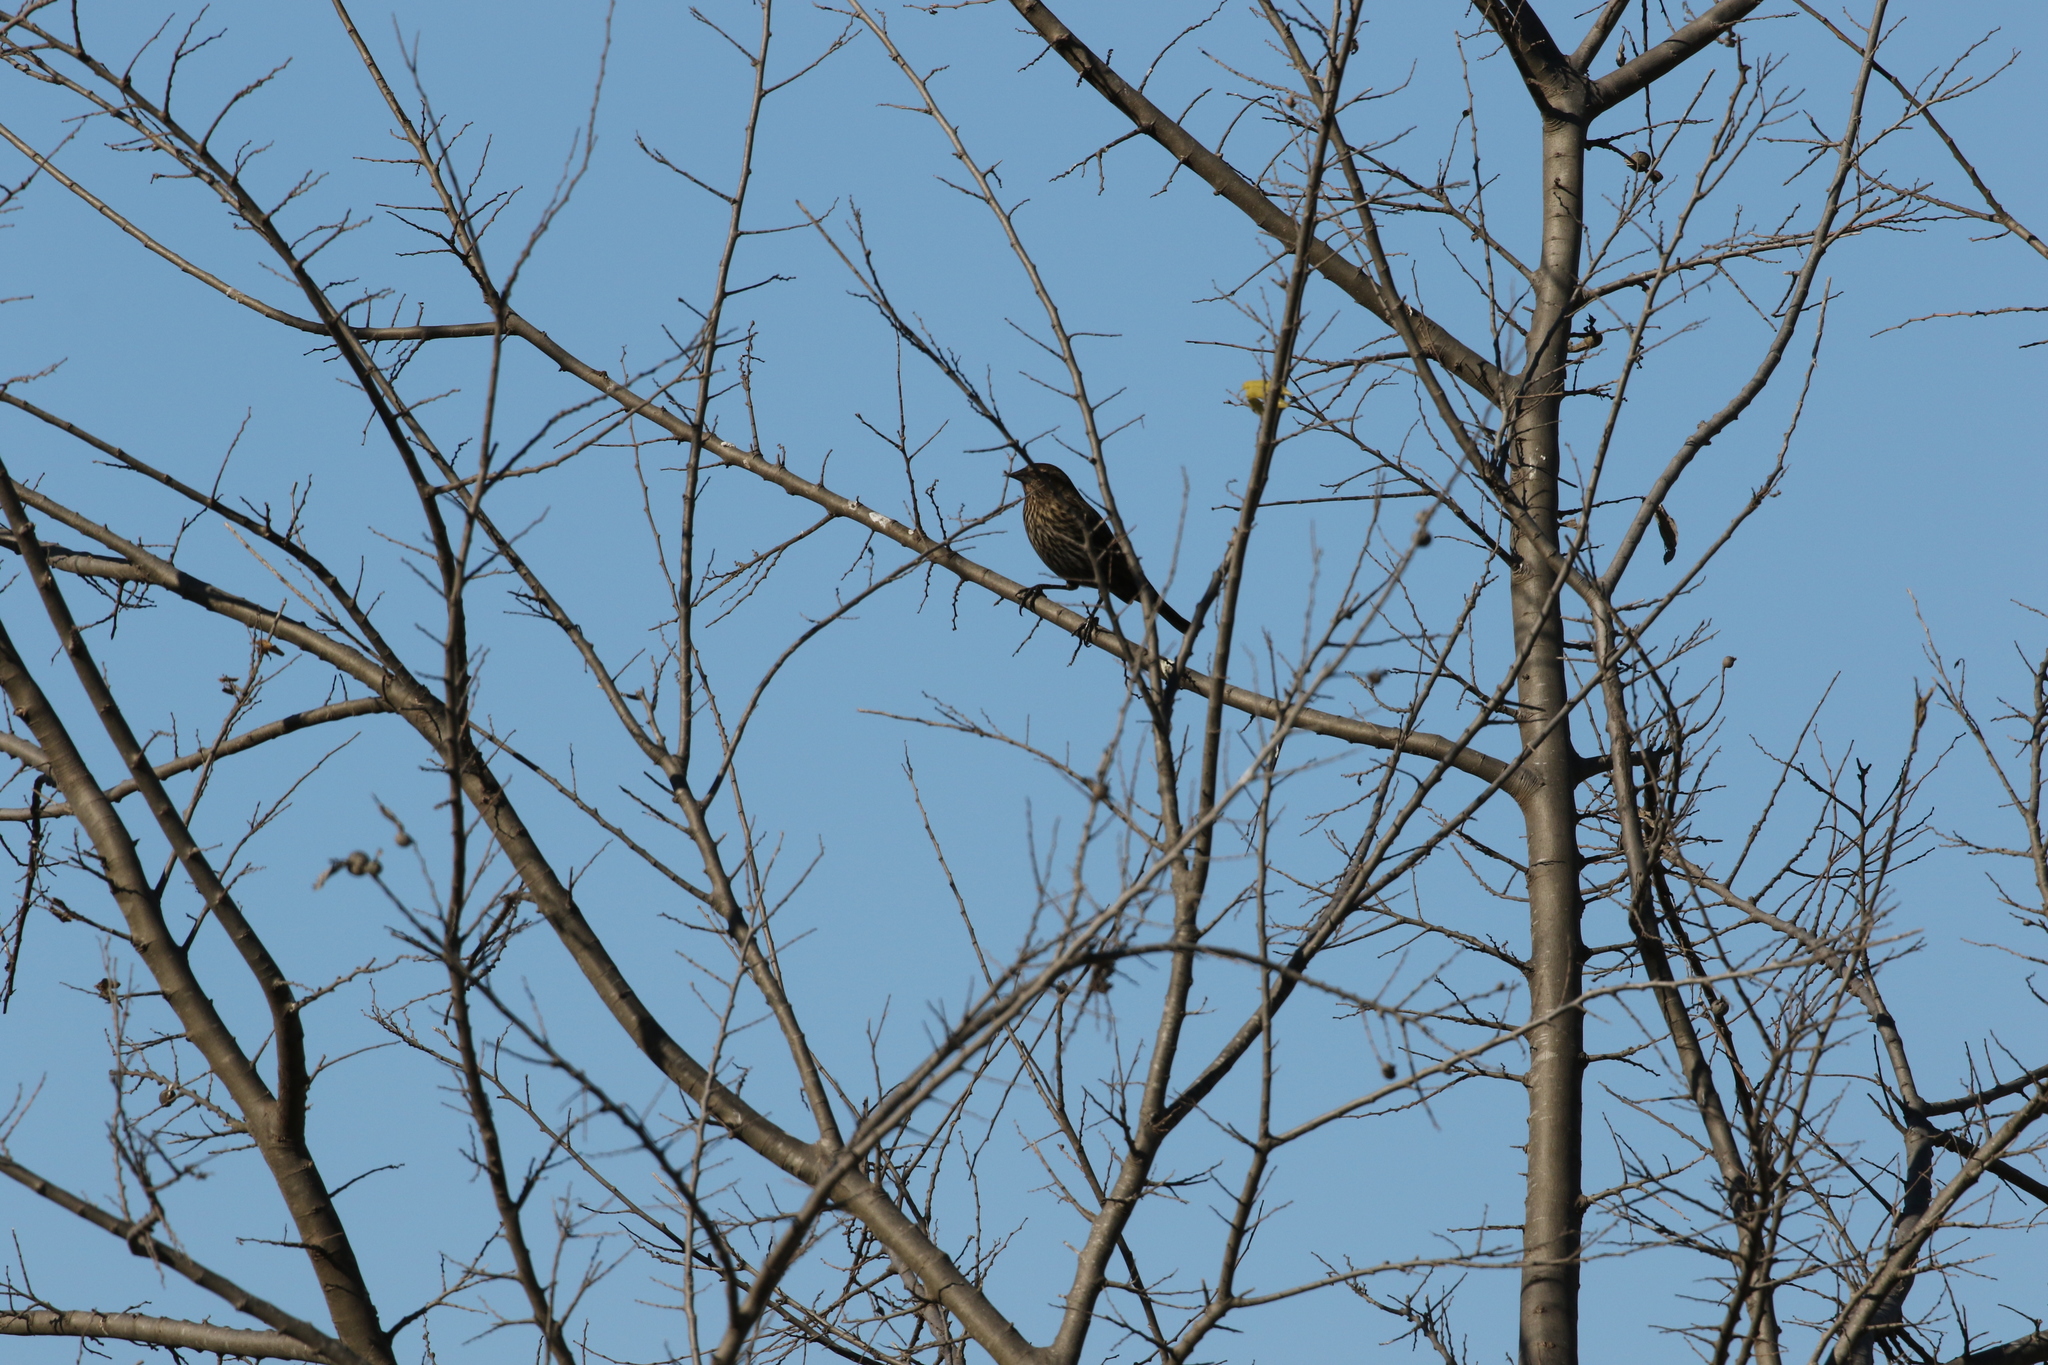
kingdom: Animalia
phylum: Chordata
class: Aves
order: Passeriformes
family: Icteridae
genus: Agelaius
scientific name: Agelaius phoeniceus
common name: Red-winged blackbird
